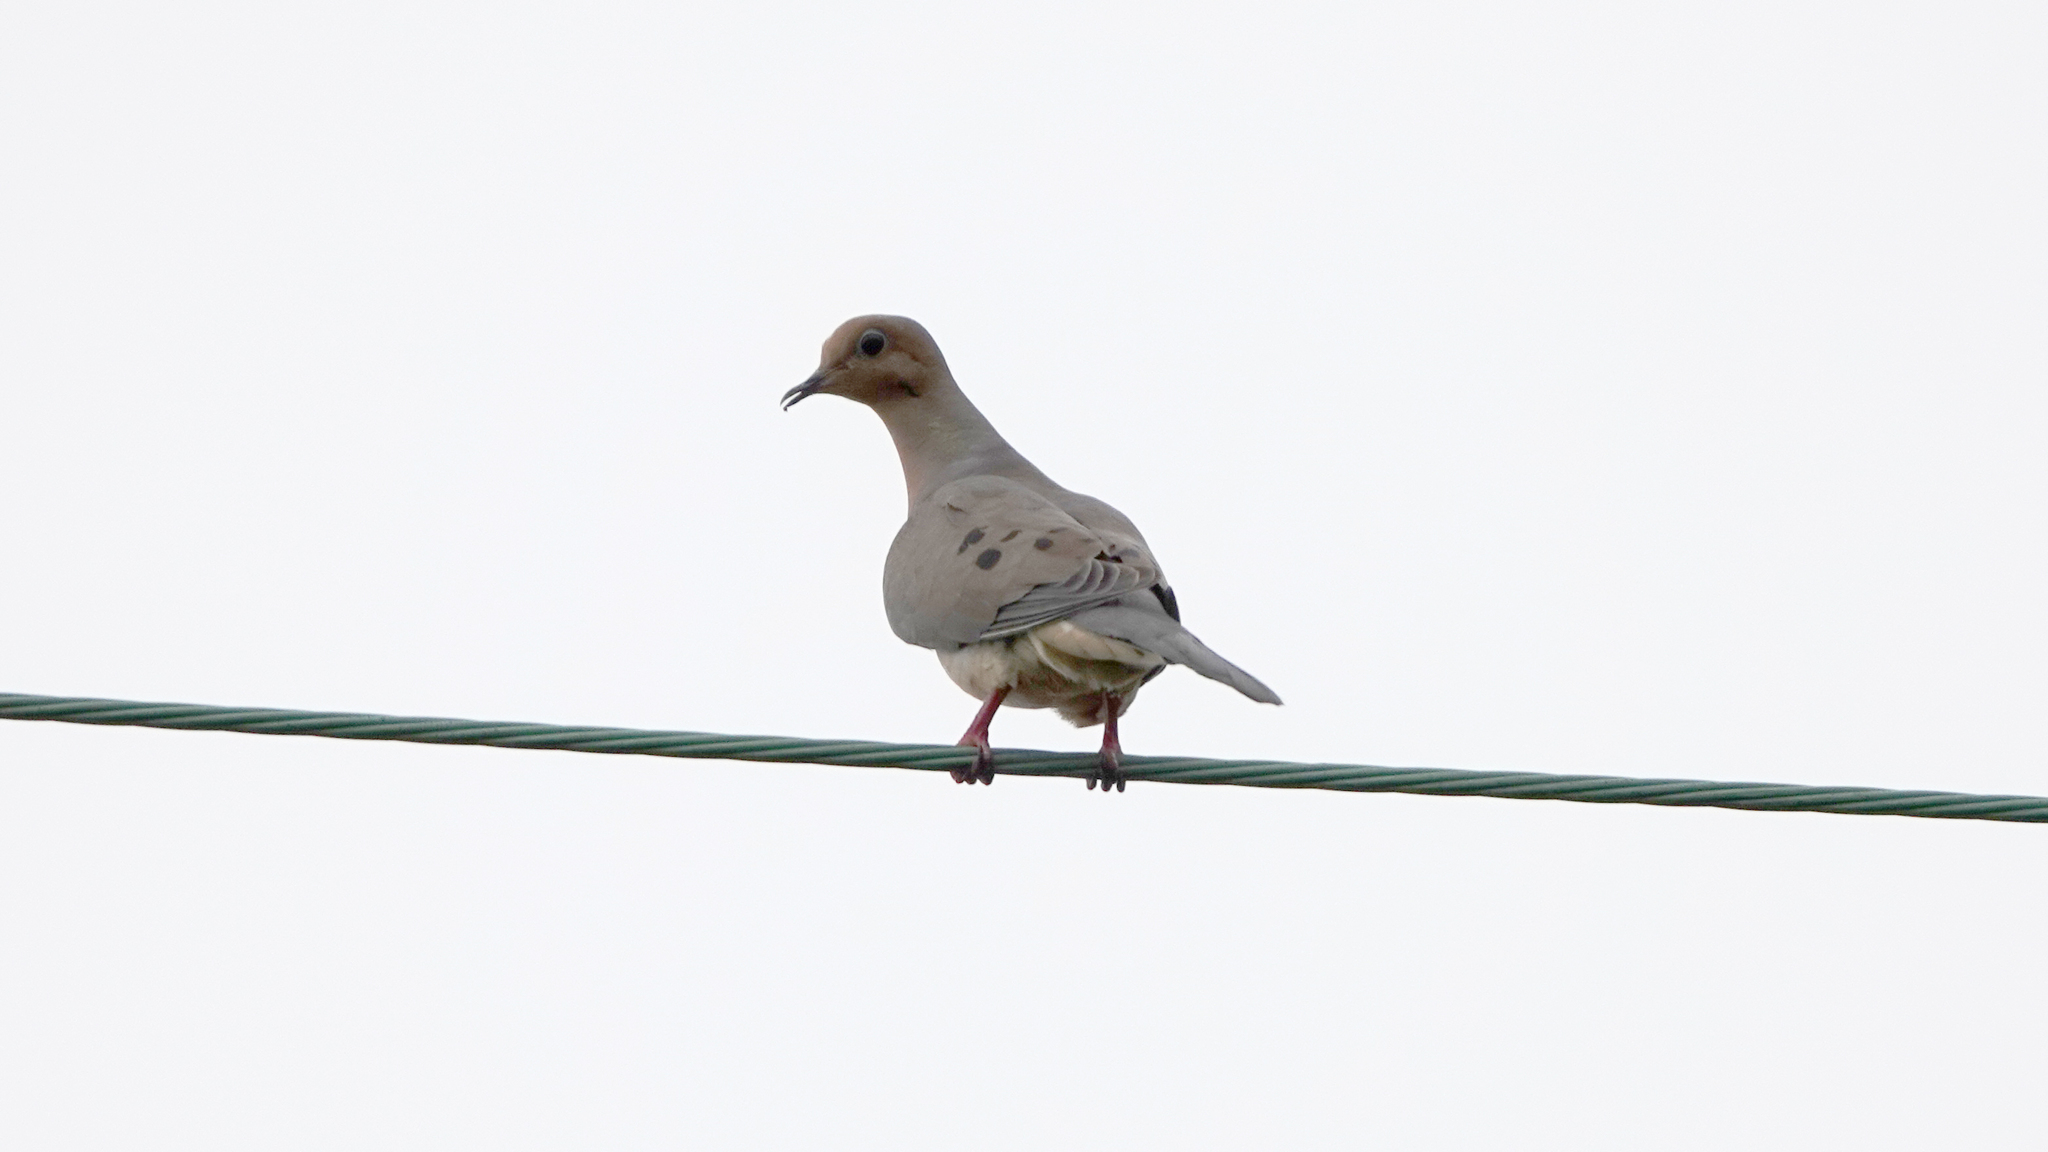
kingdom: Animalia
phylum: Chordata
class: Aves
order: Columbiformes
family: Columbidae
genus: Zenaida
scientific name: Zenaida macroura
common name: Mourning dove
